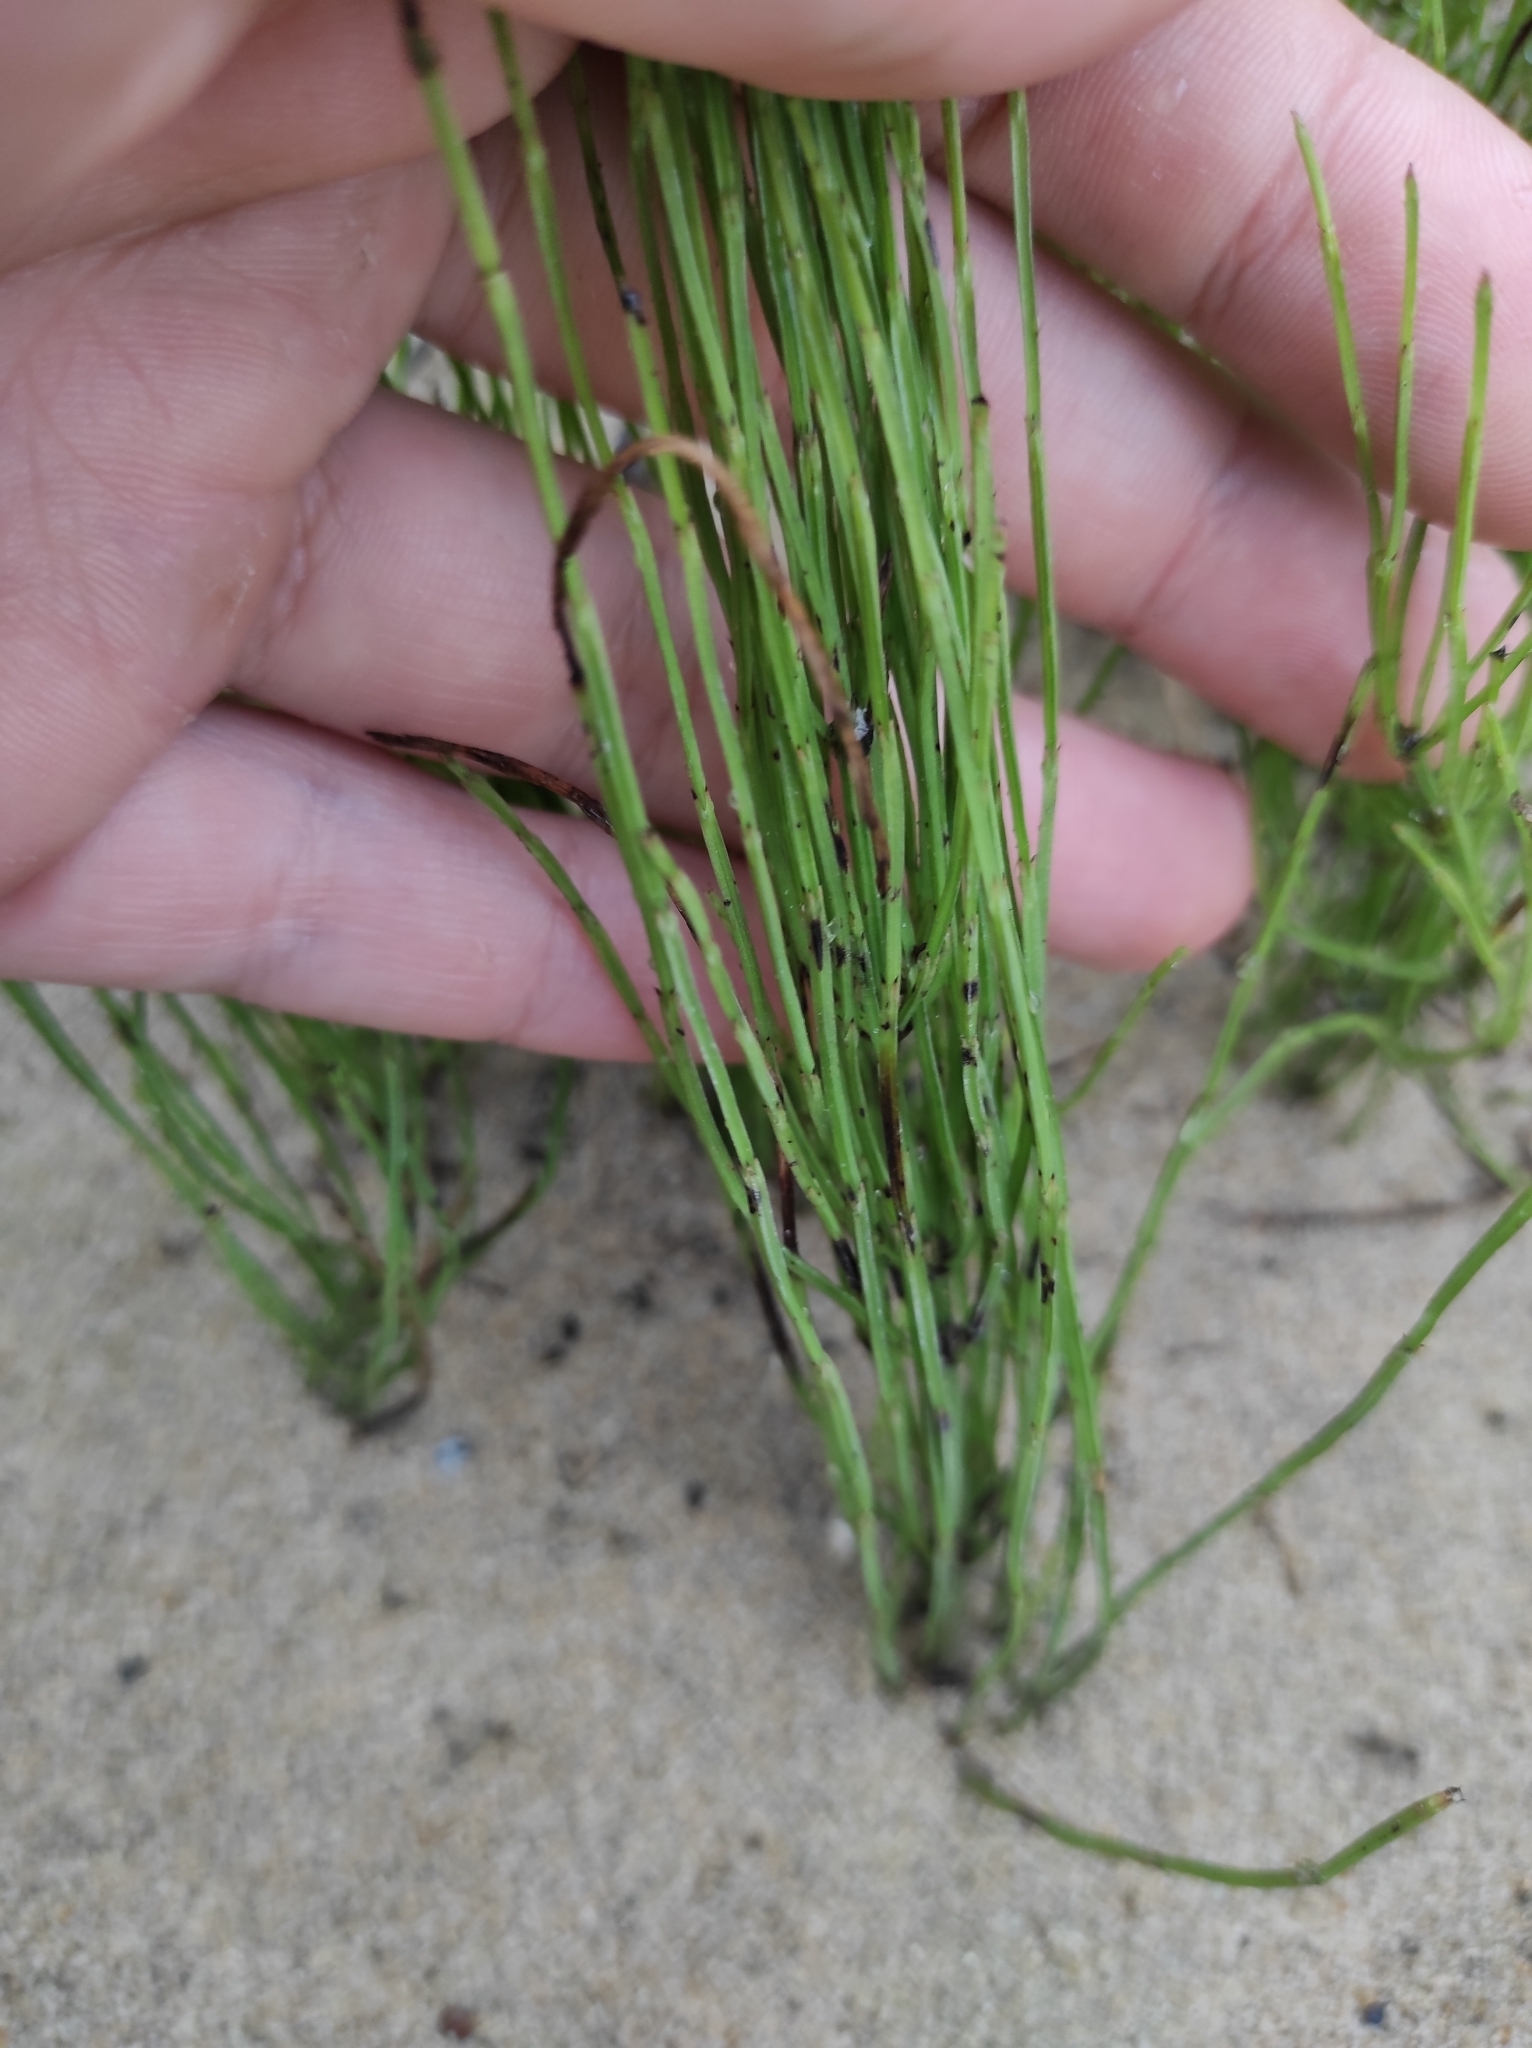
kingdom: Plantae
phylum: Tracheophyta
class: Polypodiopsida
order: Equisetales
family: Equisetaceae
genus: Equisetum
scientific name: Equisetum arvense
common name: Field horsetail
